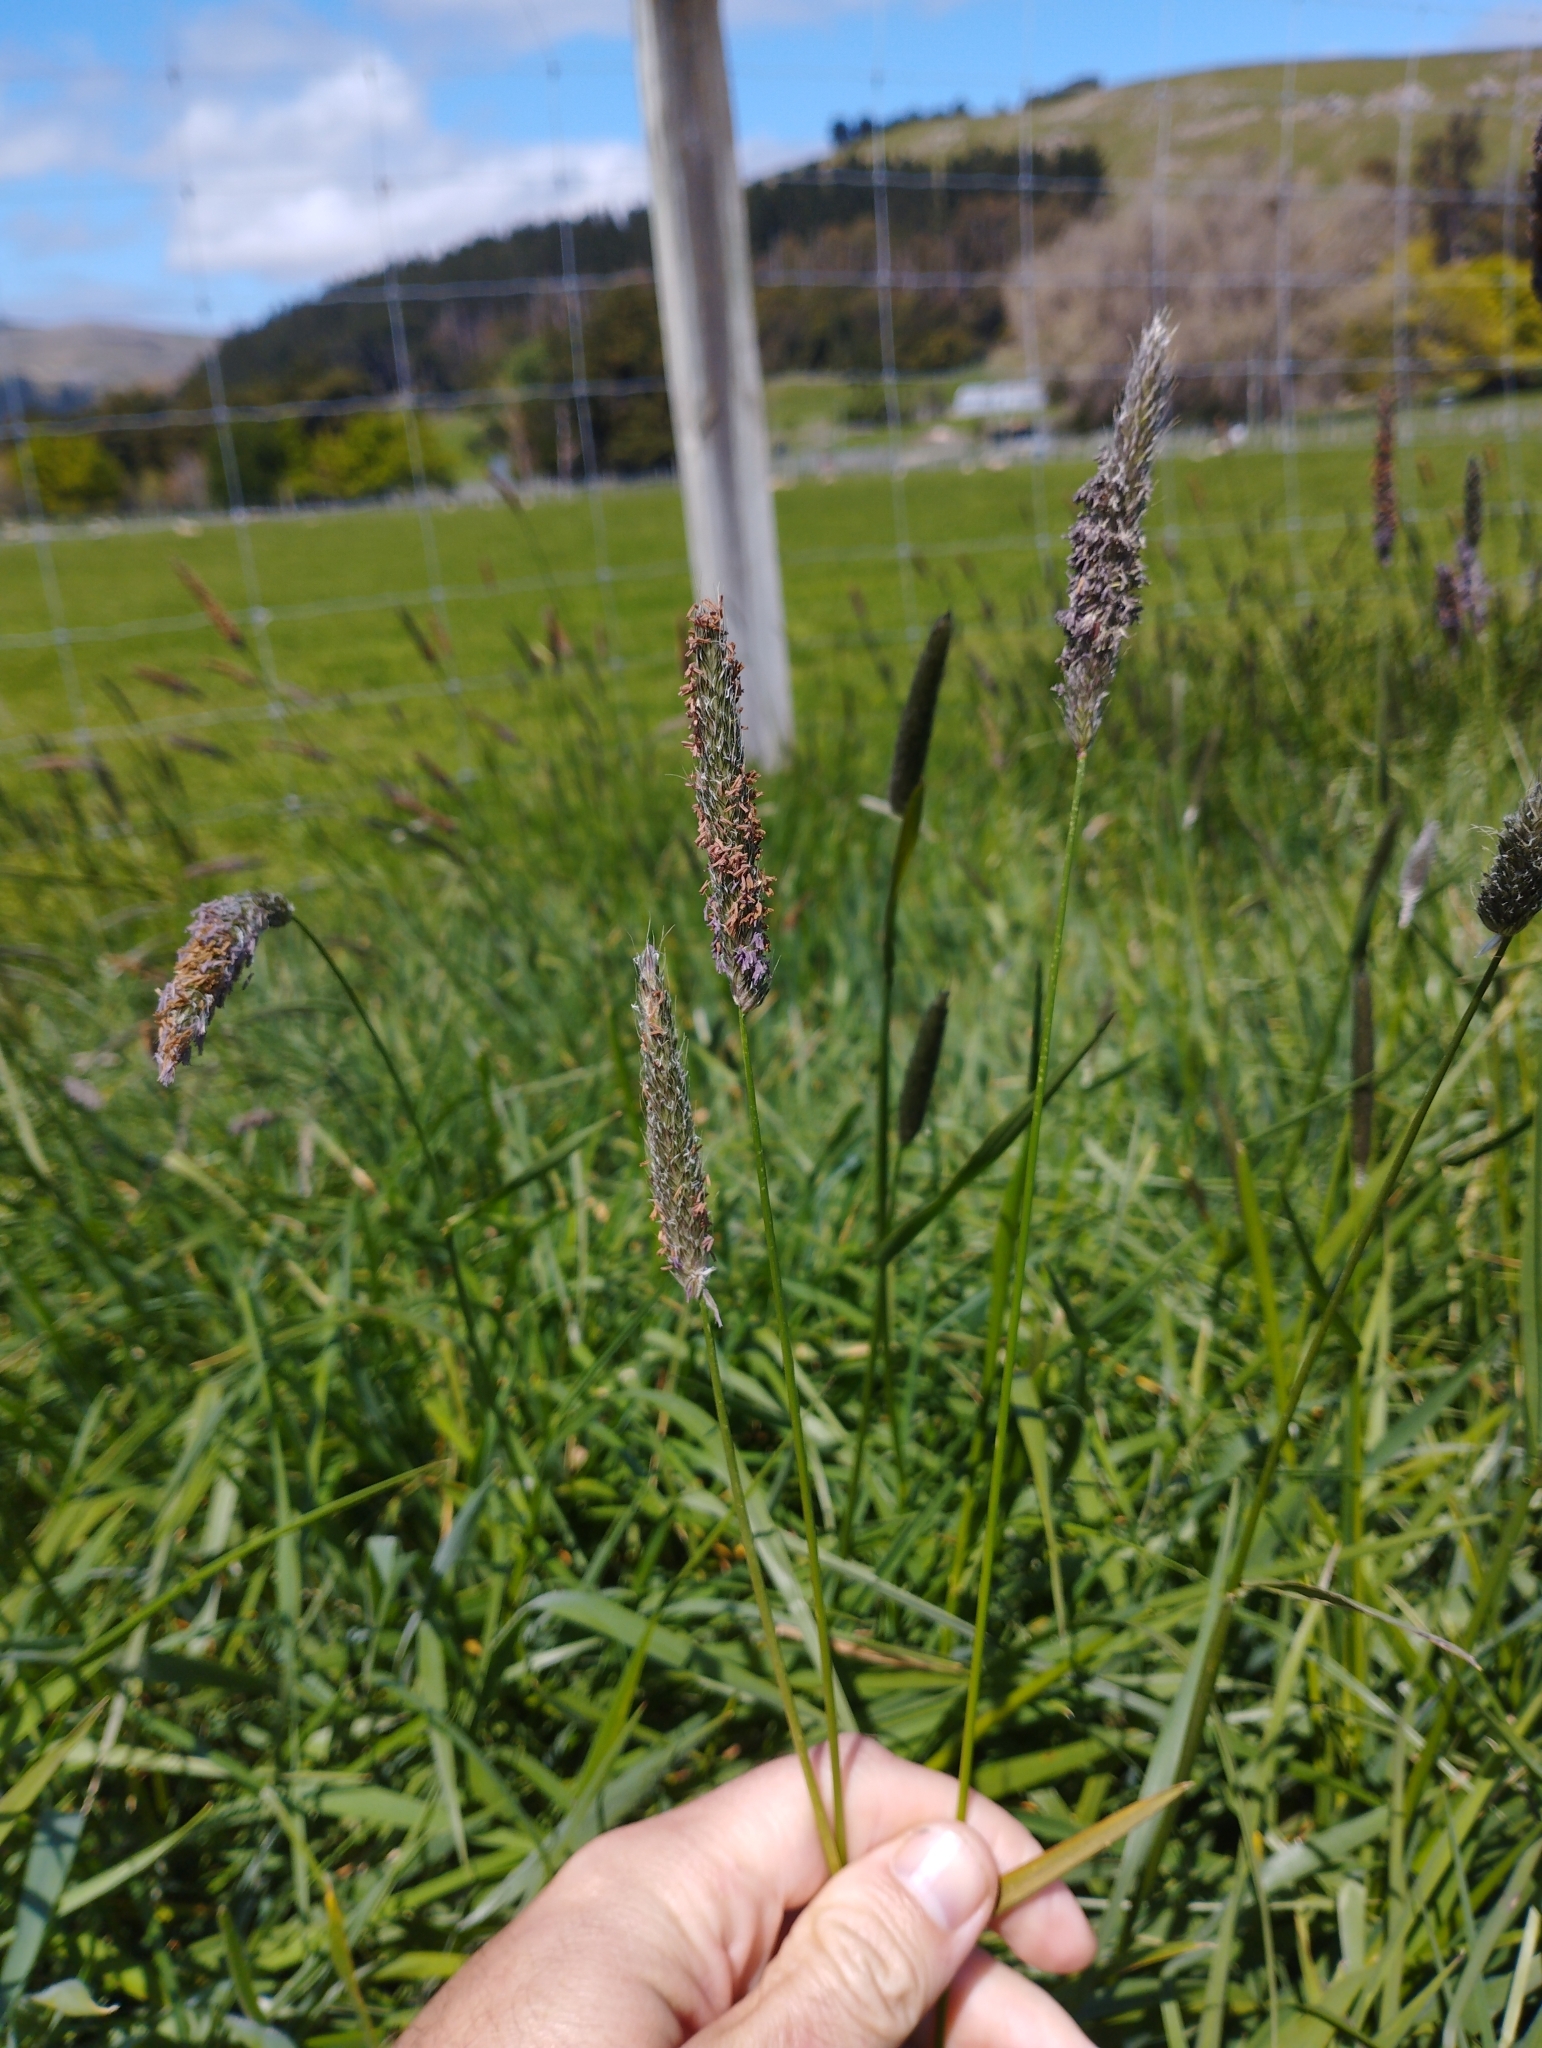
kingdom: Plantae
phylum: Tracheophyta
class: Liliopsida
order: Poales
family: Poaceae
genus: Alopecurus
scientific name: Alopecurus pratensis
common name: Meadow foxtail
